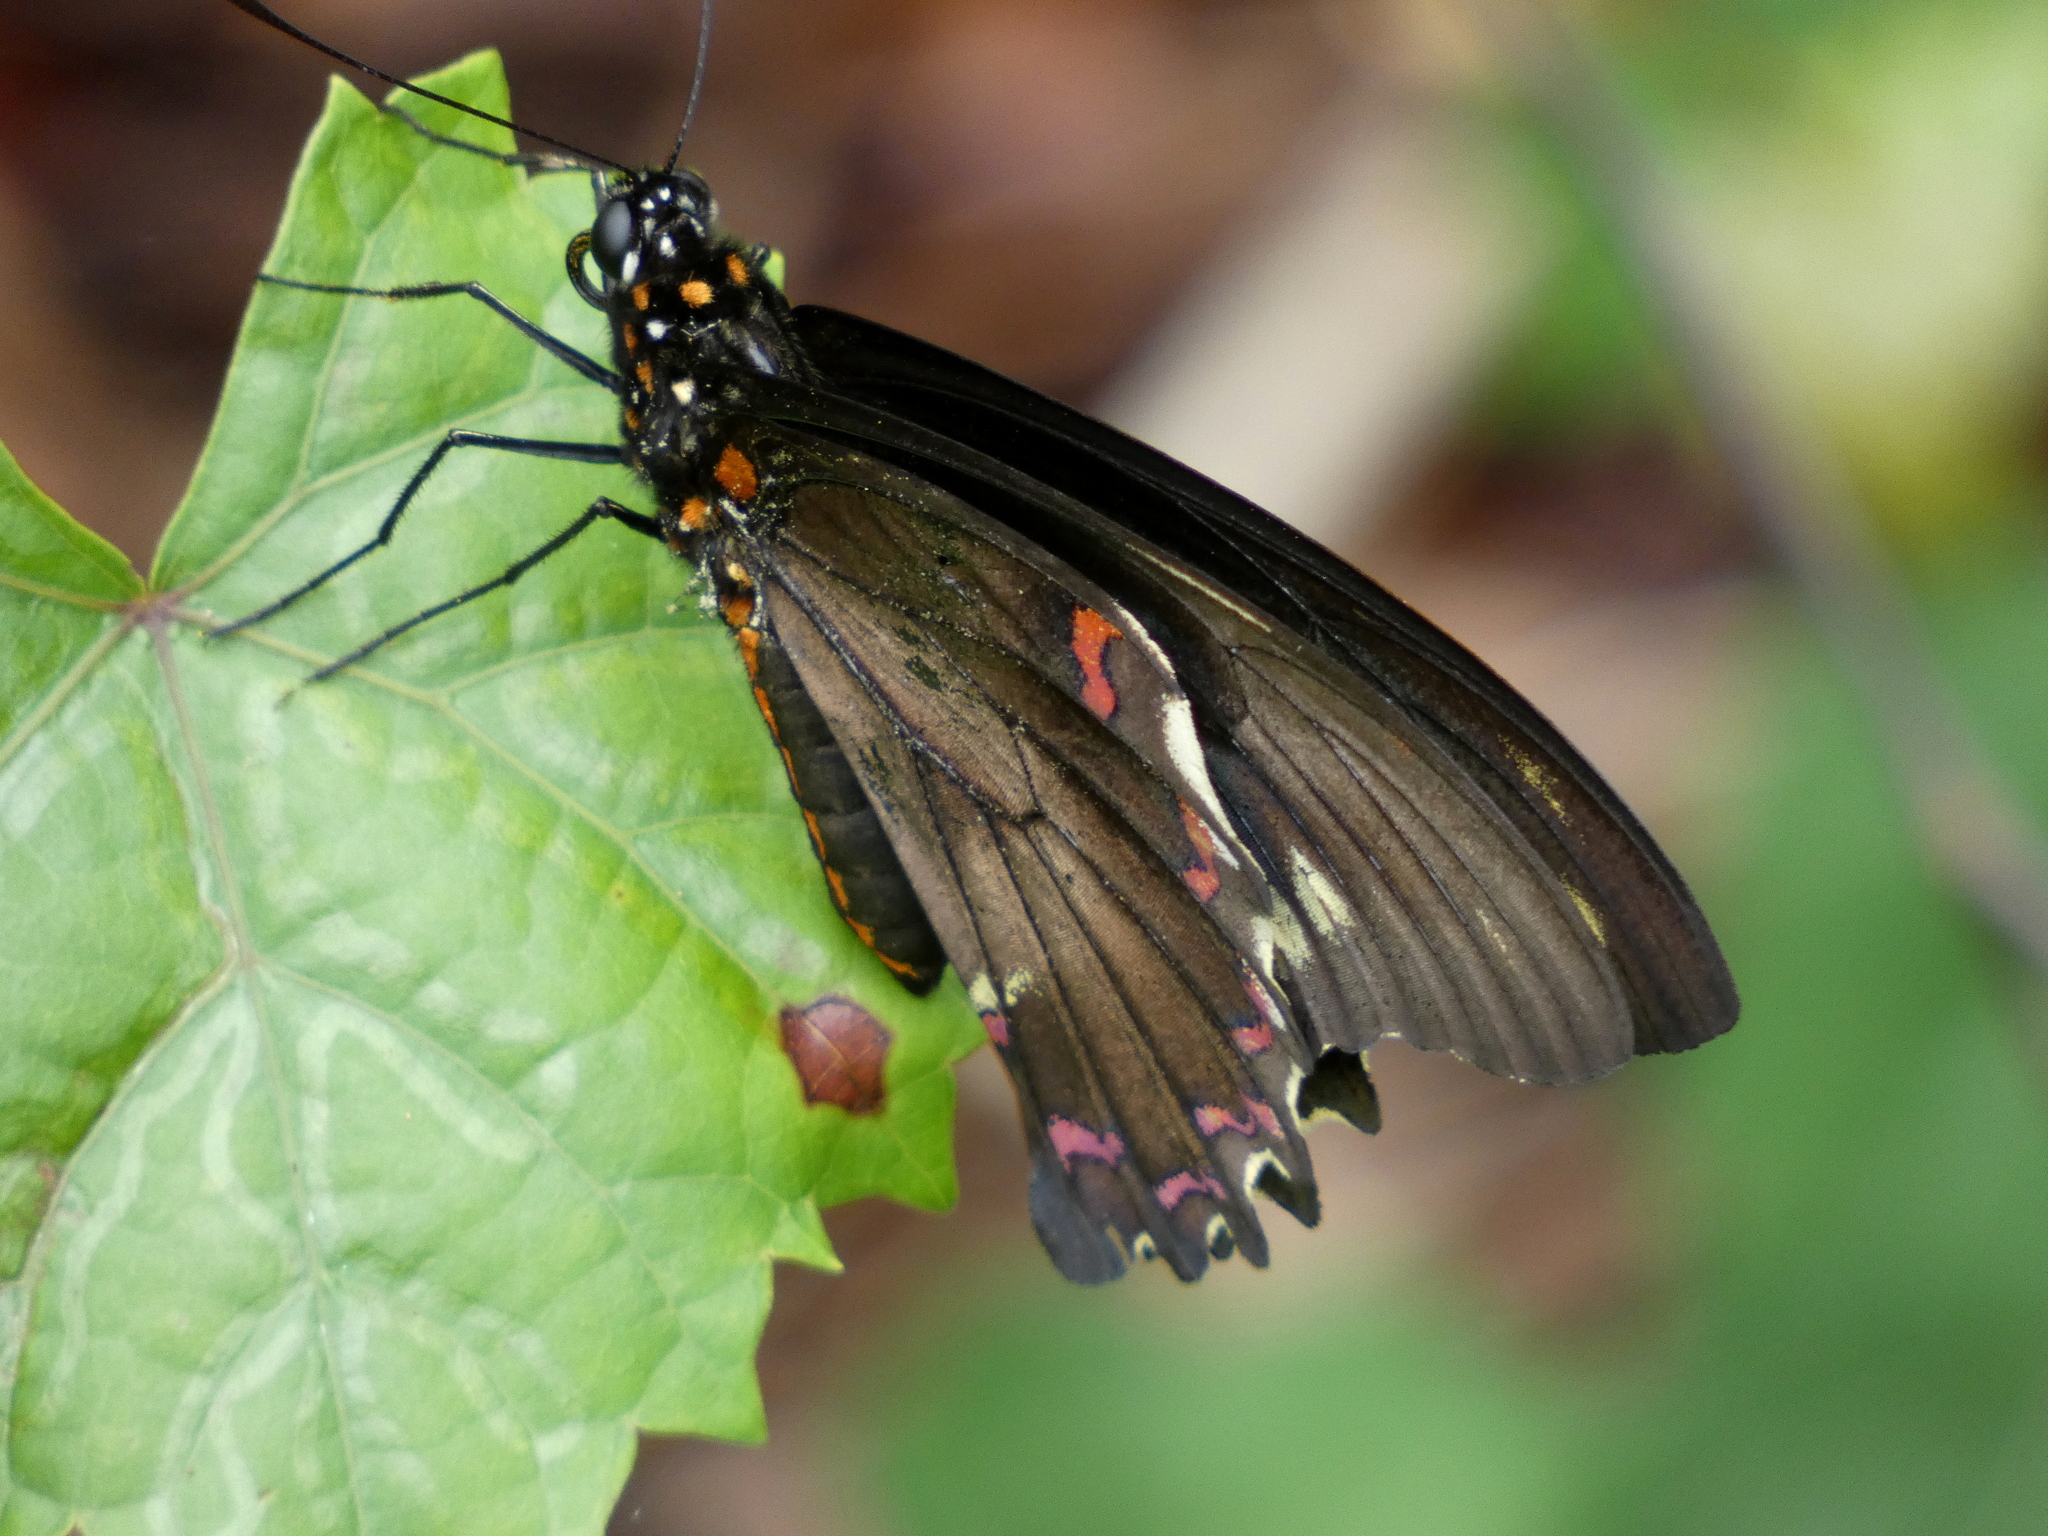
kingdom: Animalia
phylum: Arthropoda
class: Insecta
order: Lepidoptera
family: Papilionidae
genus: Battus
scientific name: Battus polydamas
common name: Polydamas swallowtail
